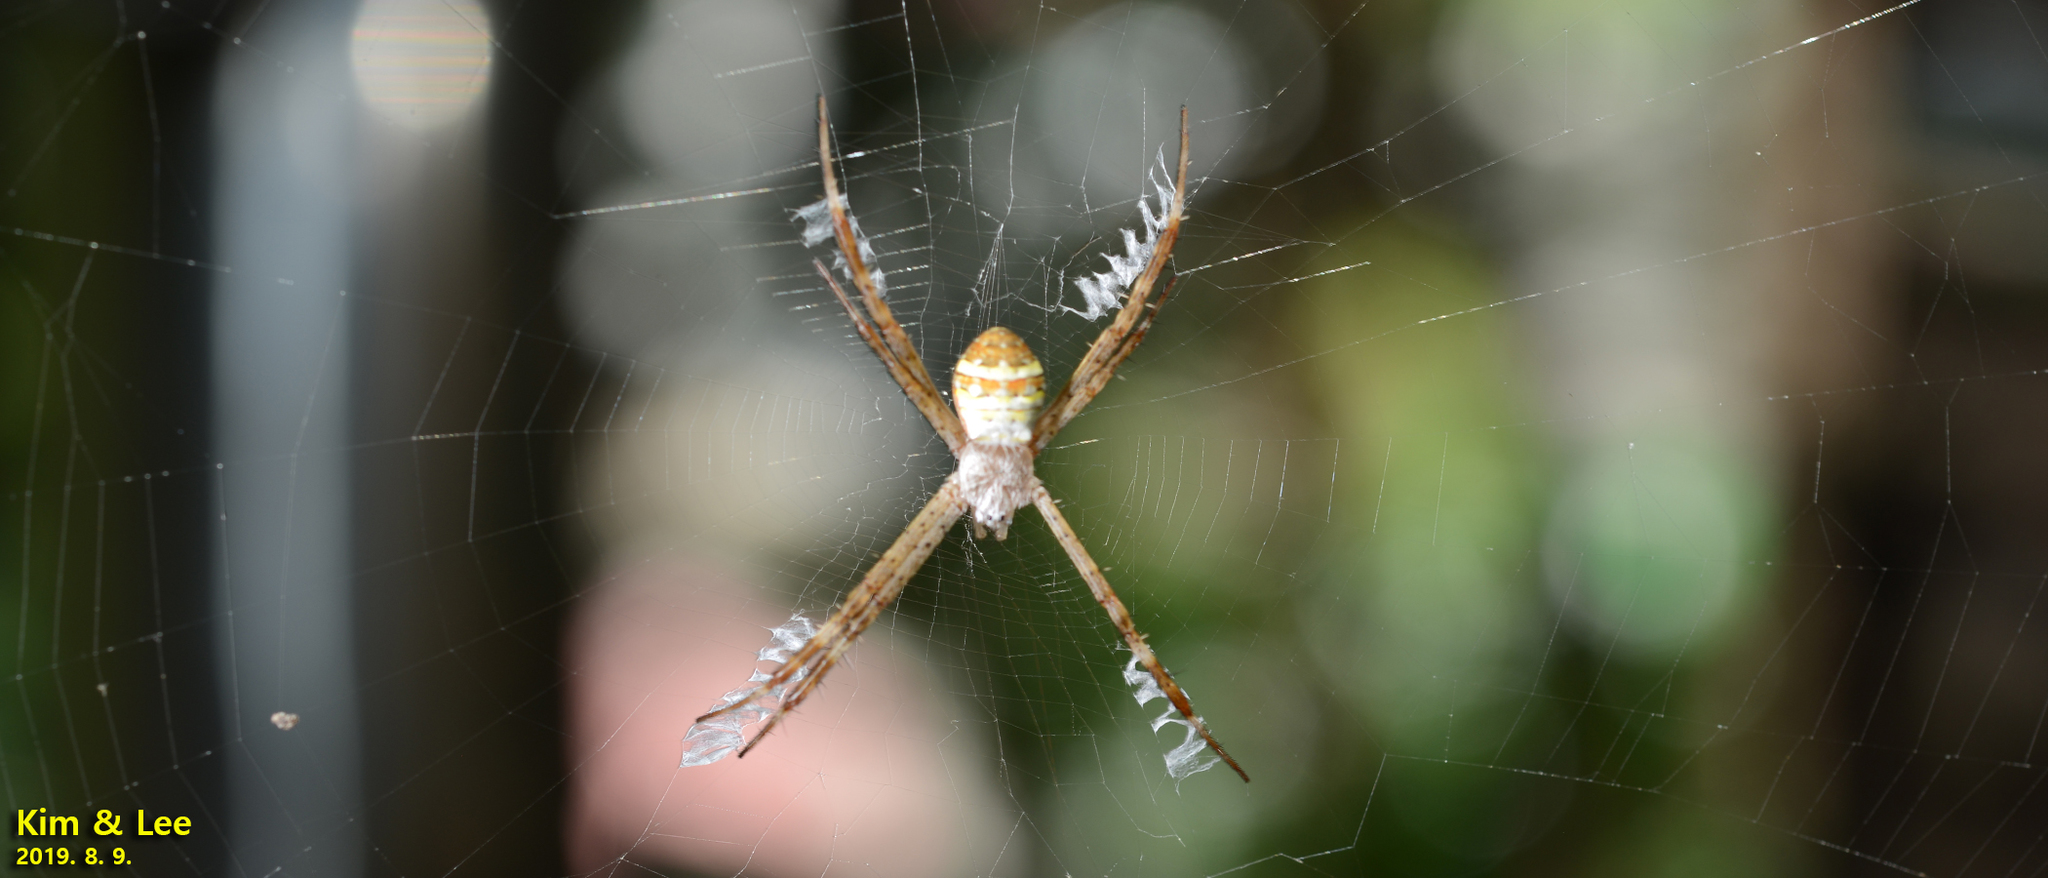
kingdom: Animalia
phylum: Arthropoda
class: Arachnida
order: Araneae
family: Araneidae
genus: Argiope
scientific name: Argiope minuta
